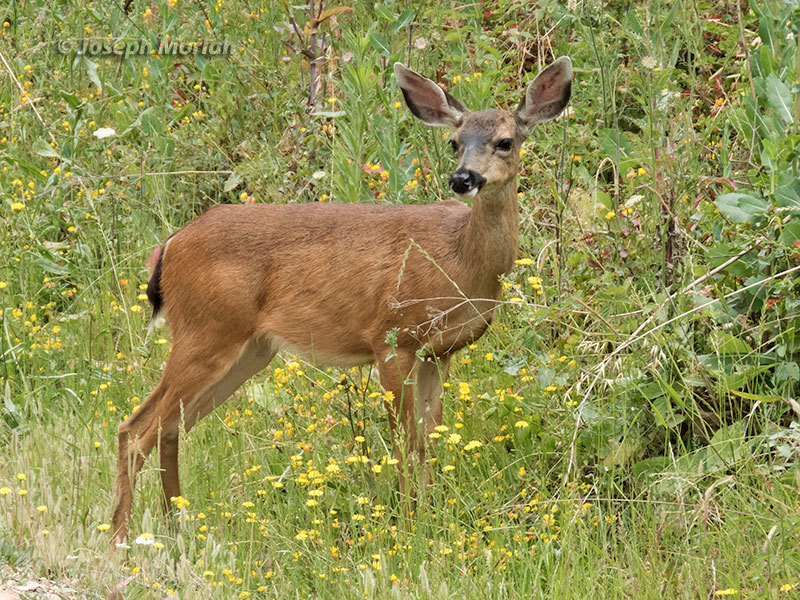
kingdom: Animalia
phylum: Chordata
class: Mammalia
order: Artiodactyla
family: Cervidae
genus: Odocoileus
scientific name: Odocoileus hemionus
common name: Mule deer
